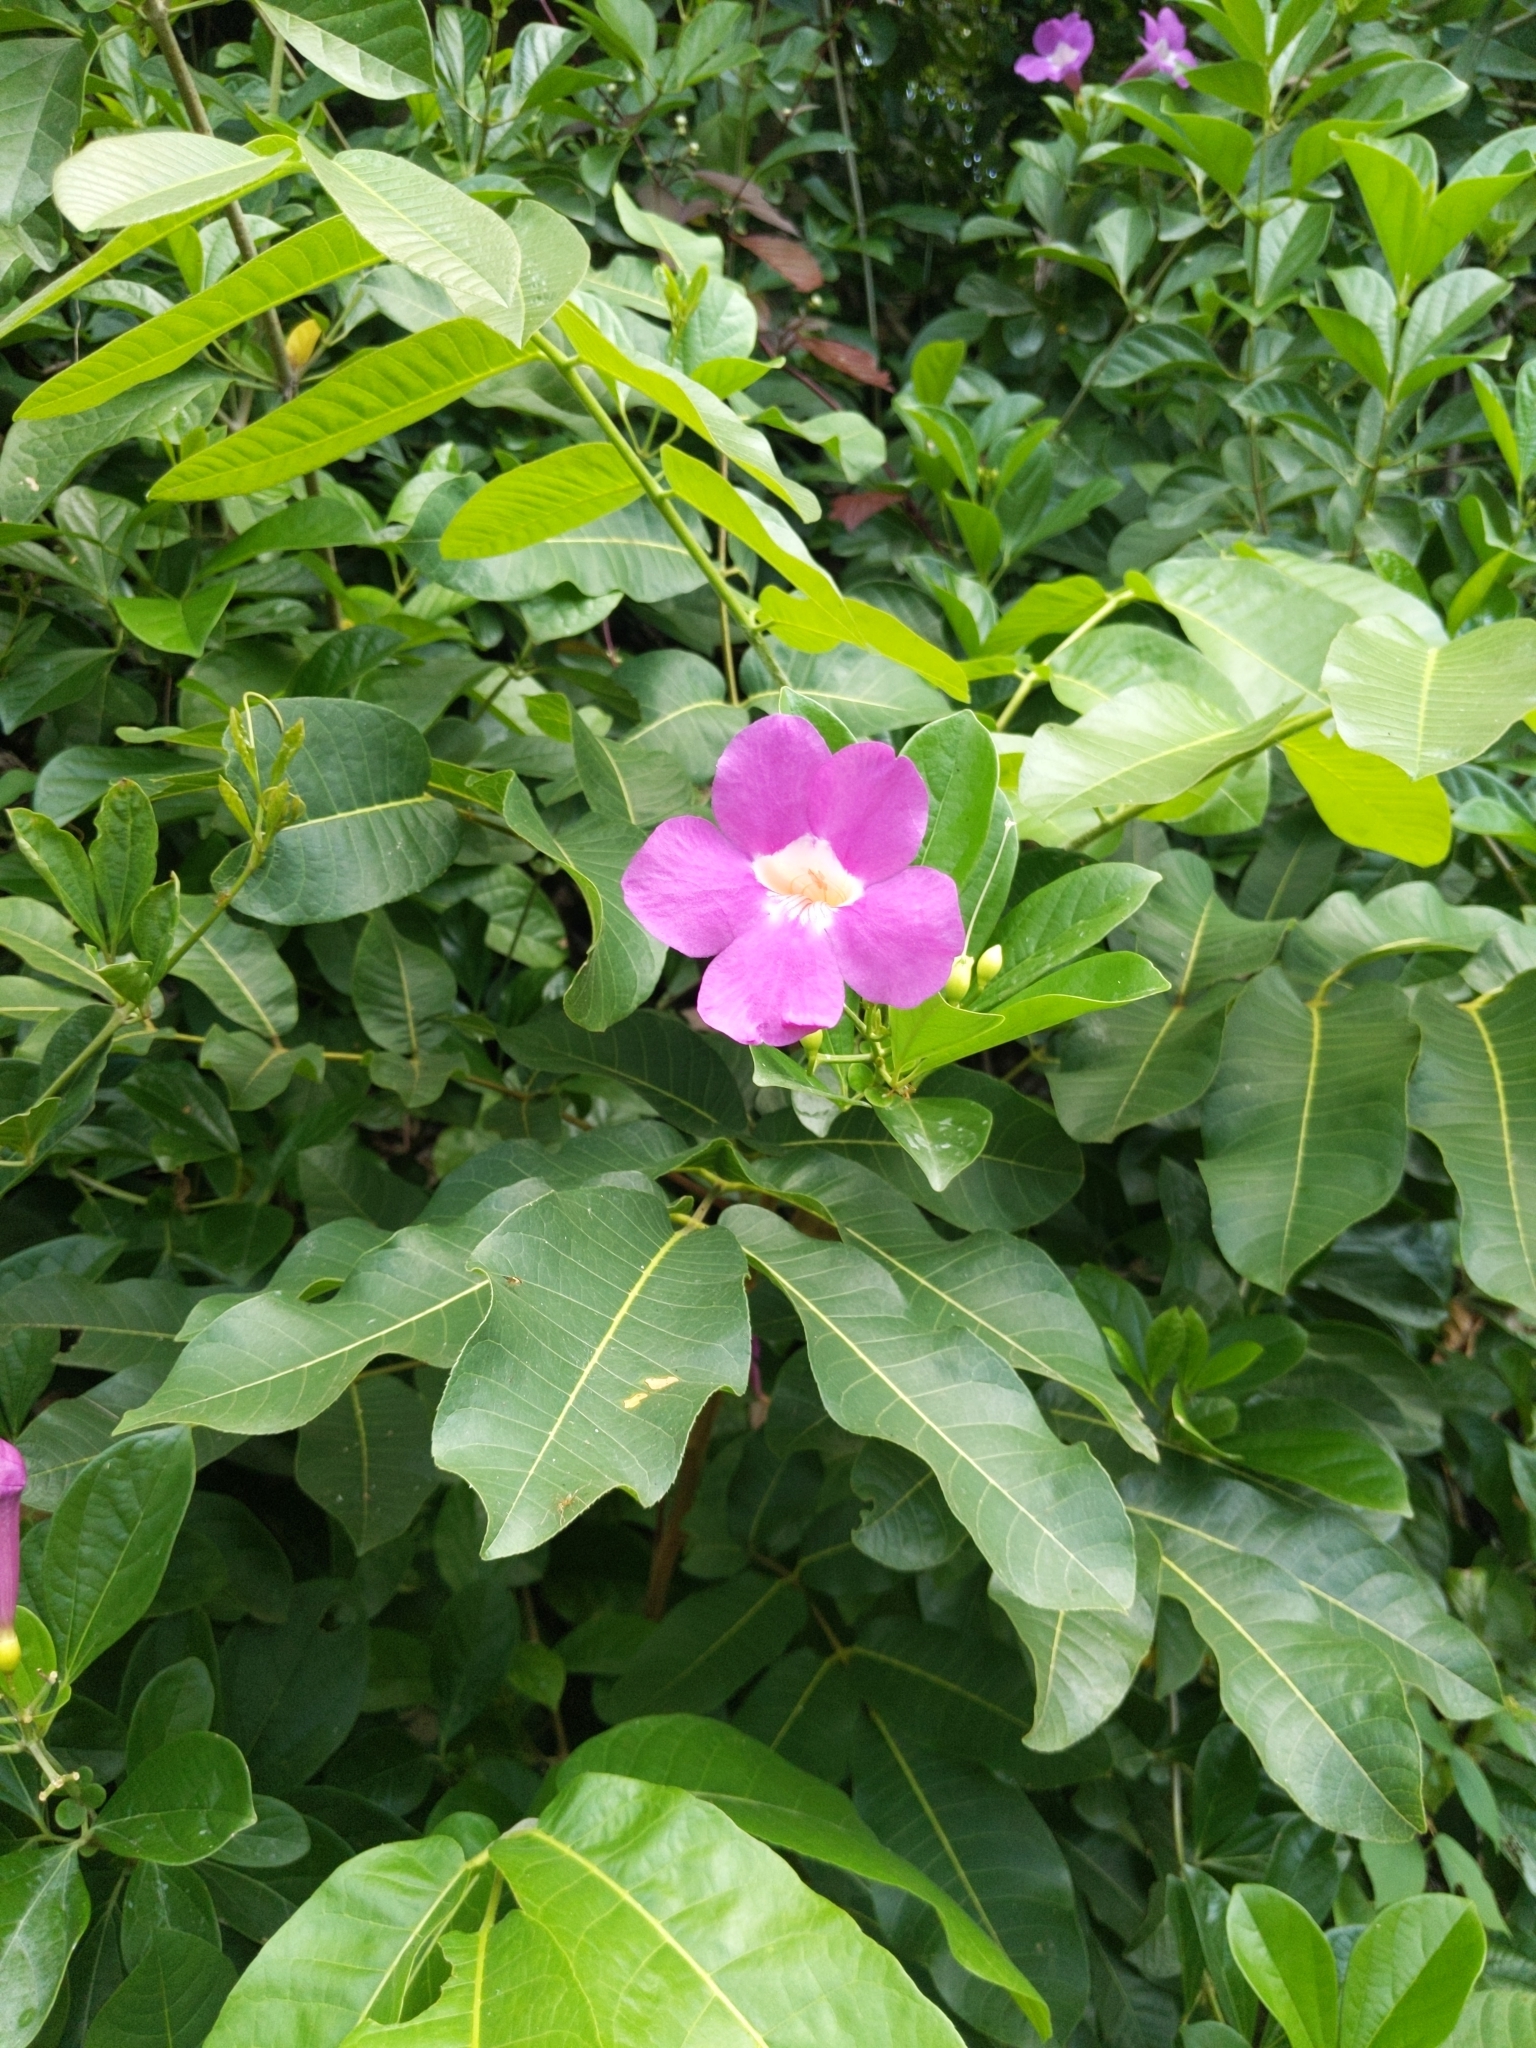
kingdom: Plantae
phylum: Tracheophyta
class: Magnoliopsida
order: Lamiales
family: Bignoniaceae
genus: Bignonia
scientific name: Bignonia magnifica
